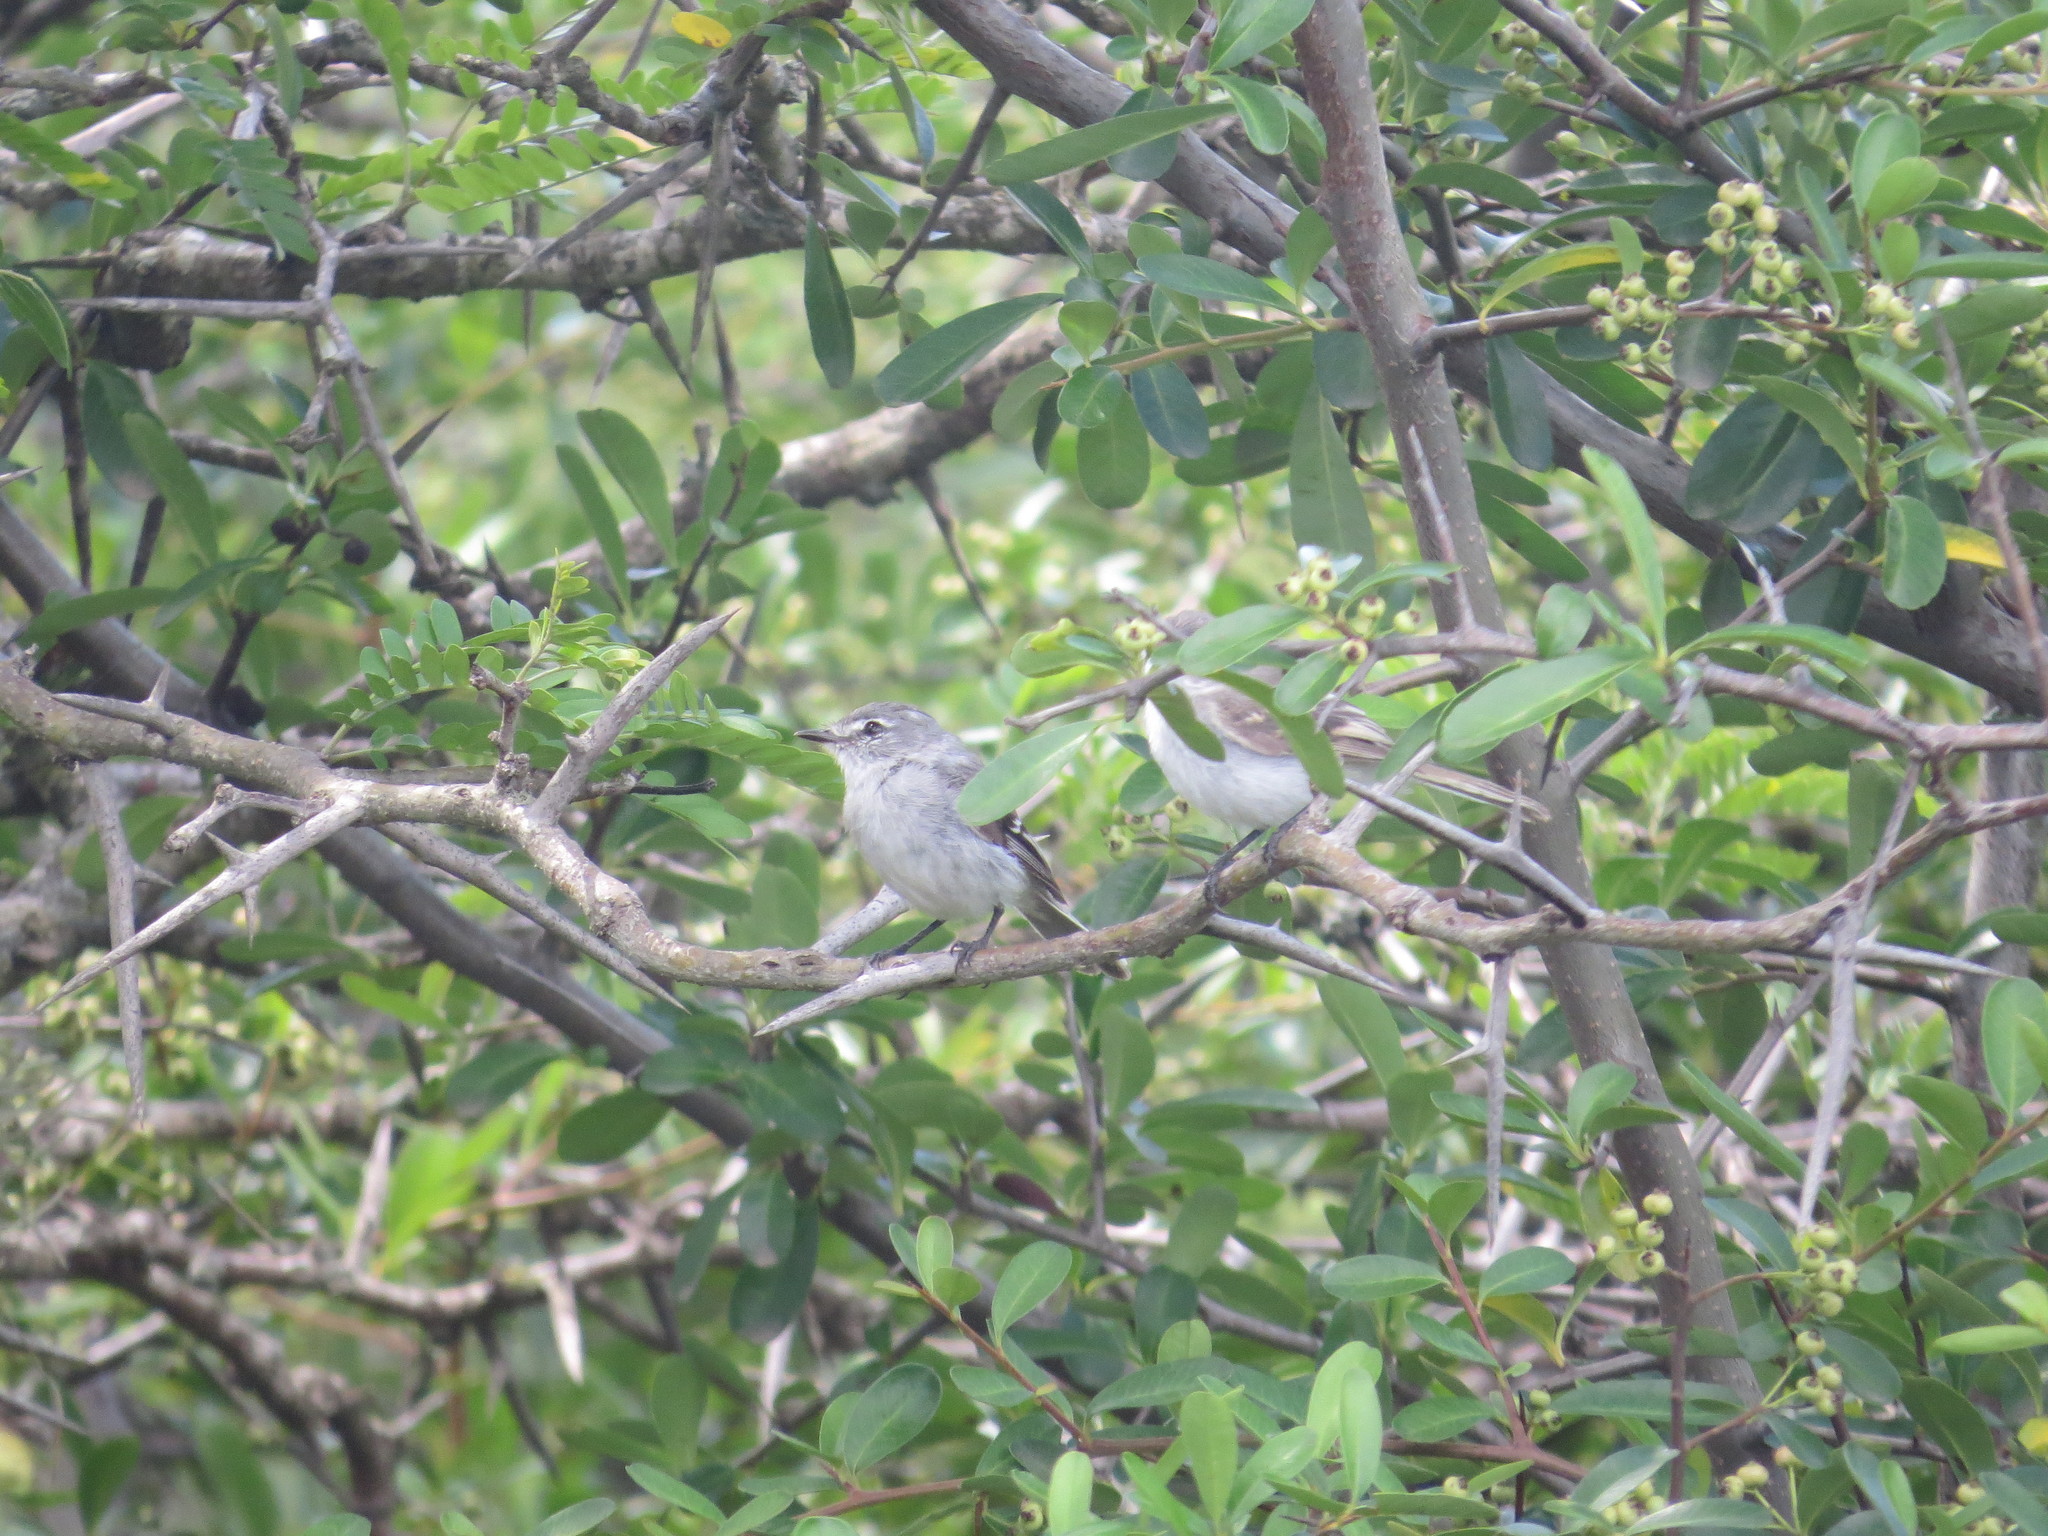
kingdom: Animalia
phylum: Chordata
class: Aves
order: Passeriformes
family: Tyrannidae
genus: Serpophaga
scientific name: Serpophaga subcristata
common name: White-crested tyrannulet
